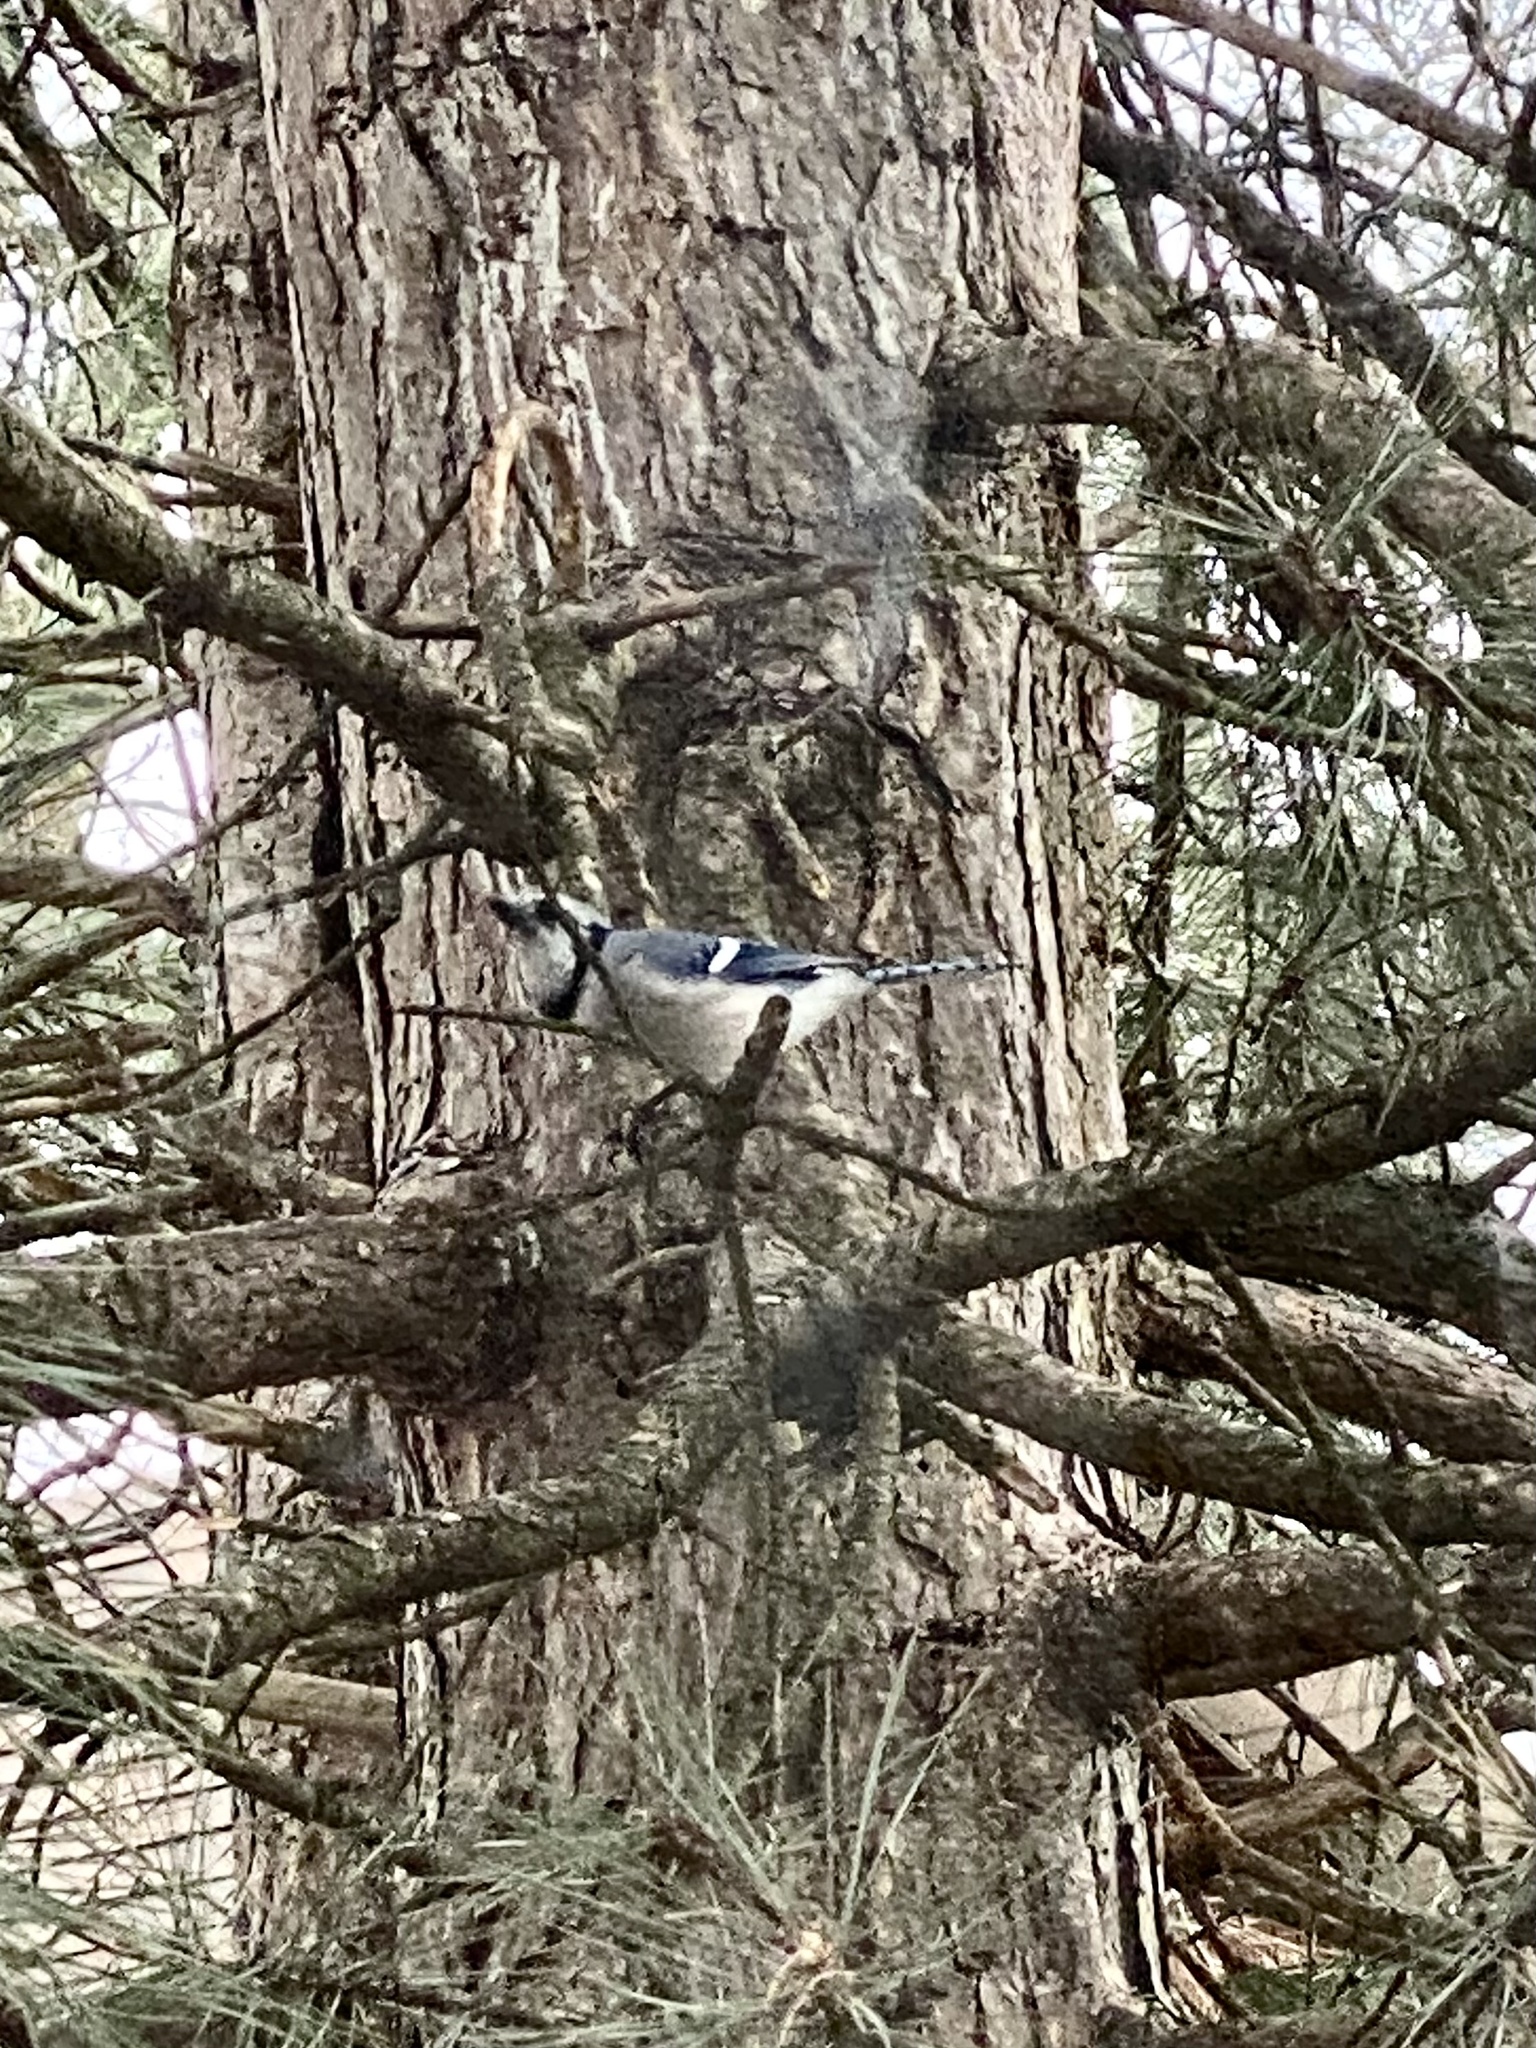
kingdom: Animalia
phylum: Chordata
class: Aves
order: Passeriformes
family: Corvidae
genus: Cyanocitta
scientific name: Cyanocitta cristata
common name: Blue jay
